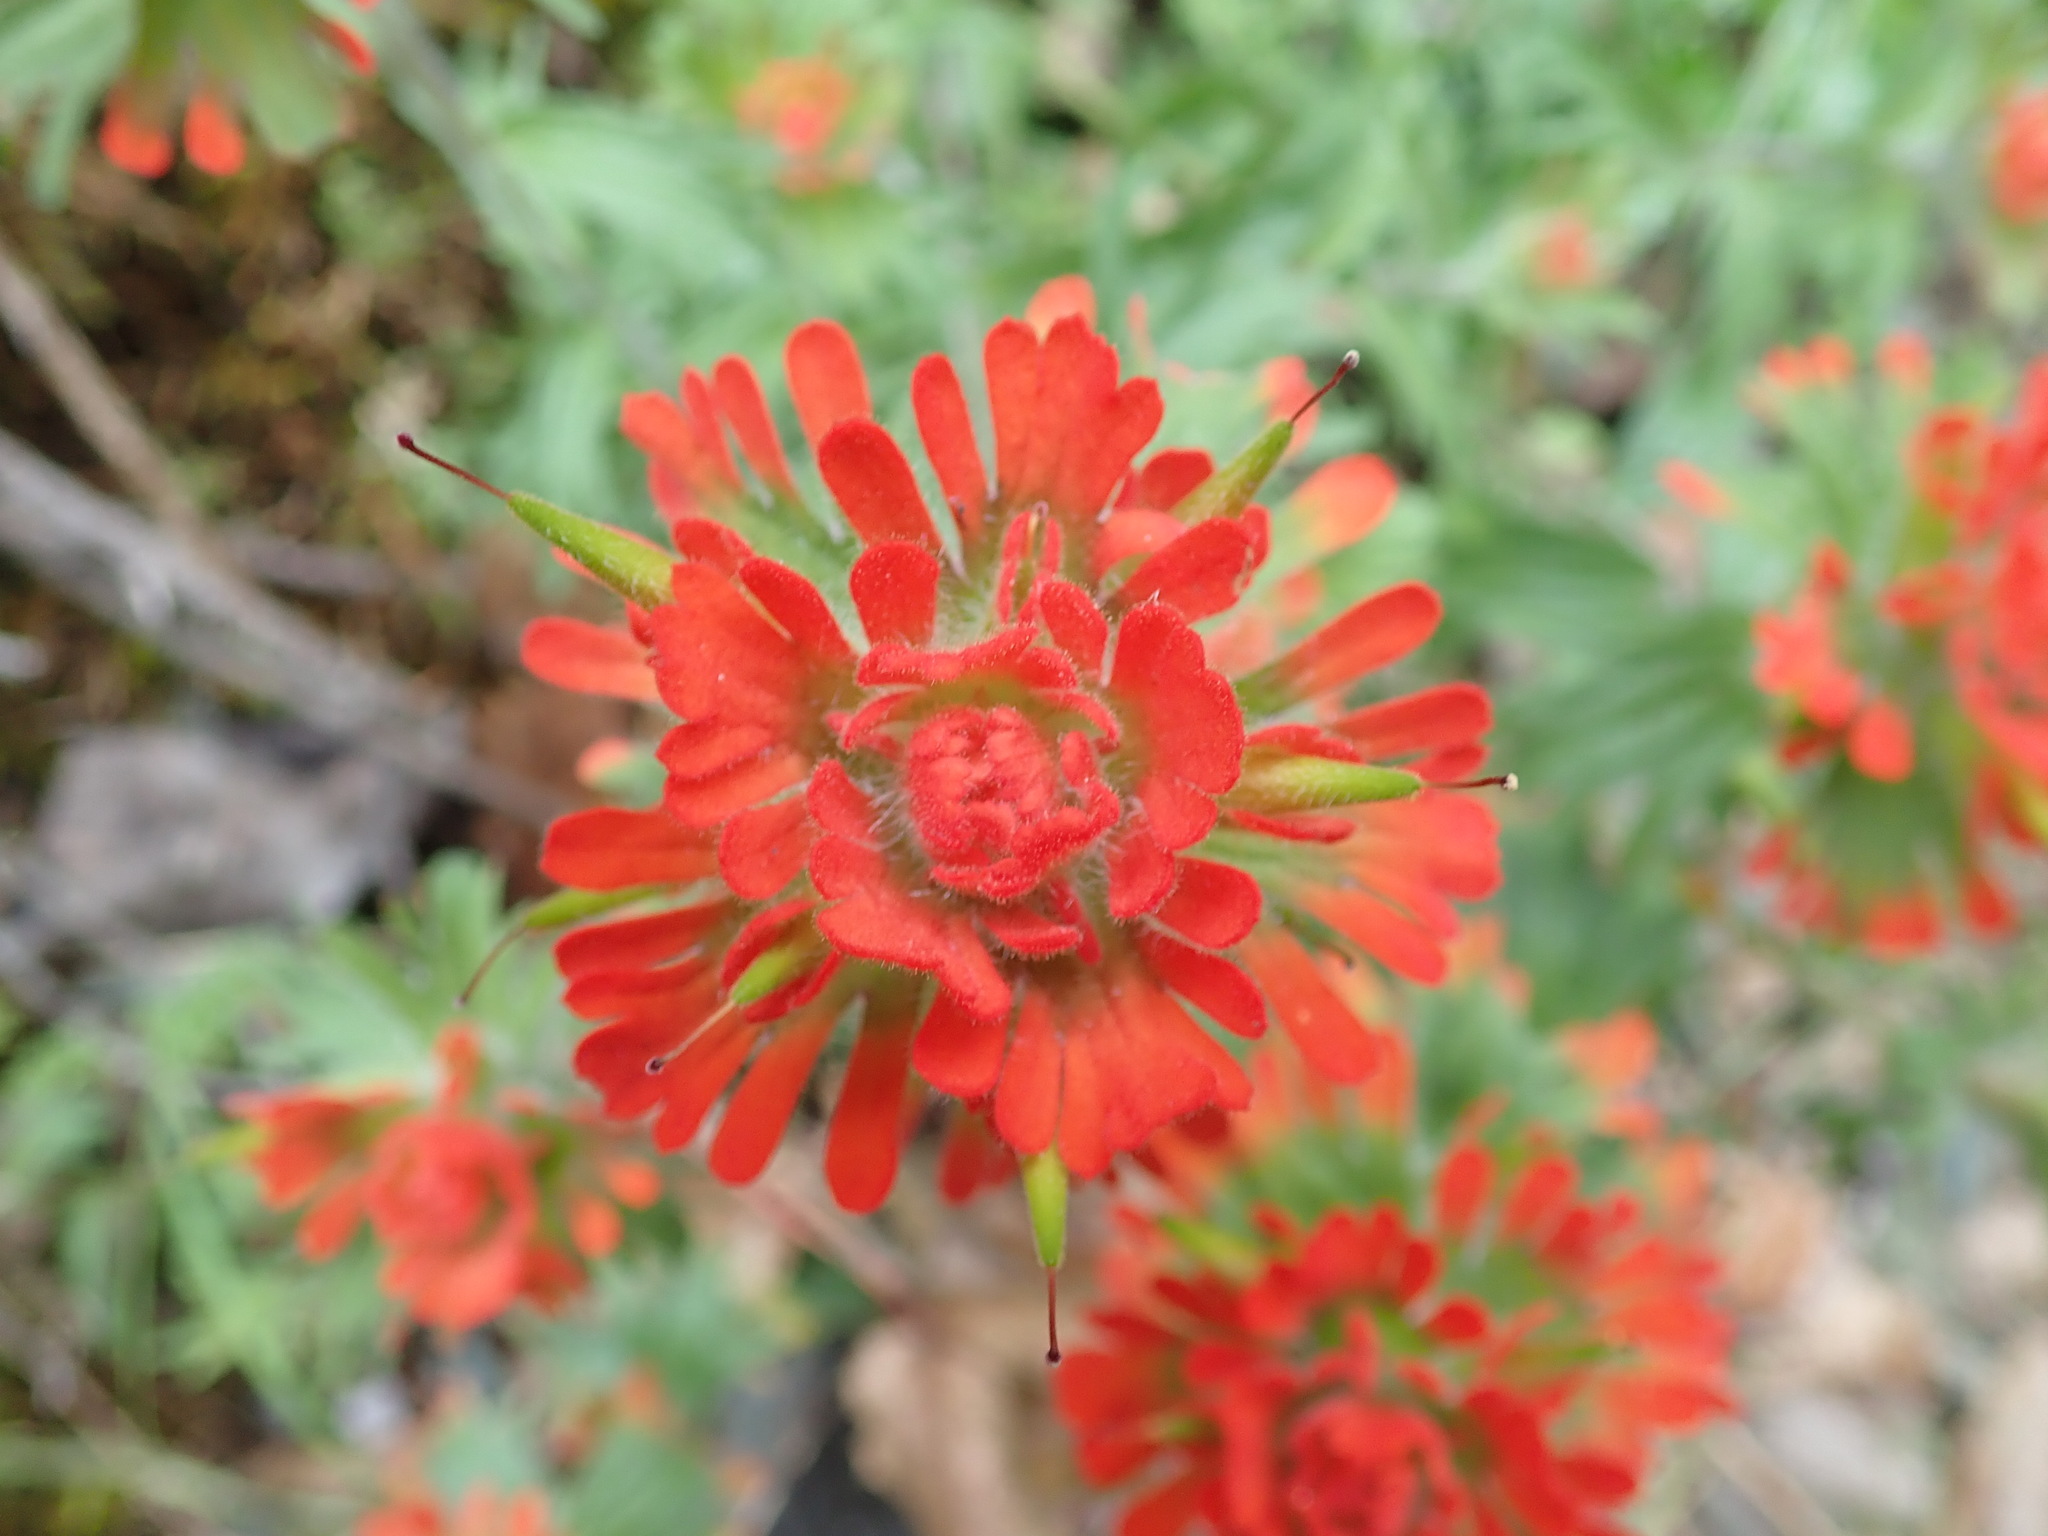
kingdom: Plantae
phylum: Tracheophyta
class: Magnoliopsida
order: Lamiales
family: Orobanchaceae
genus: Castilleja
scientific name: Castilleja hispida
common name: Bristly paintbrush
